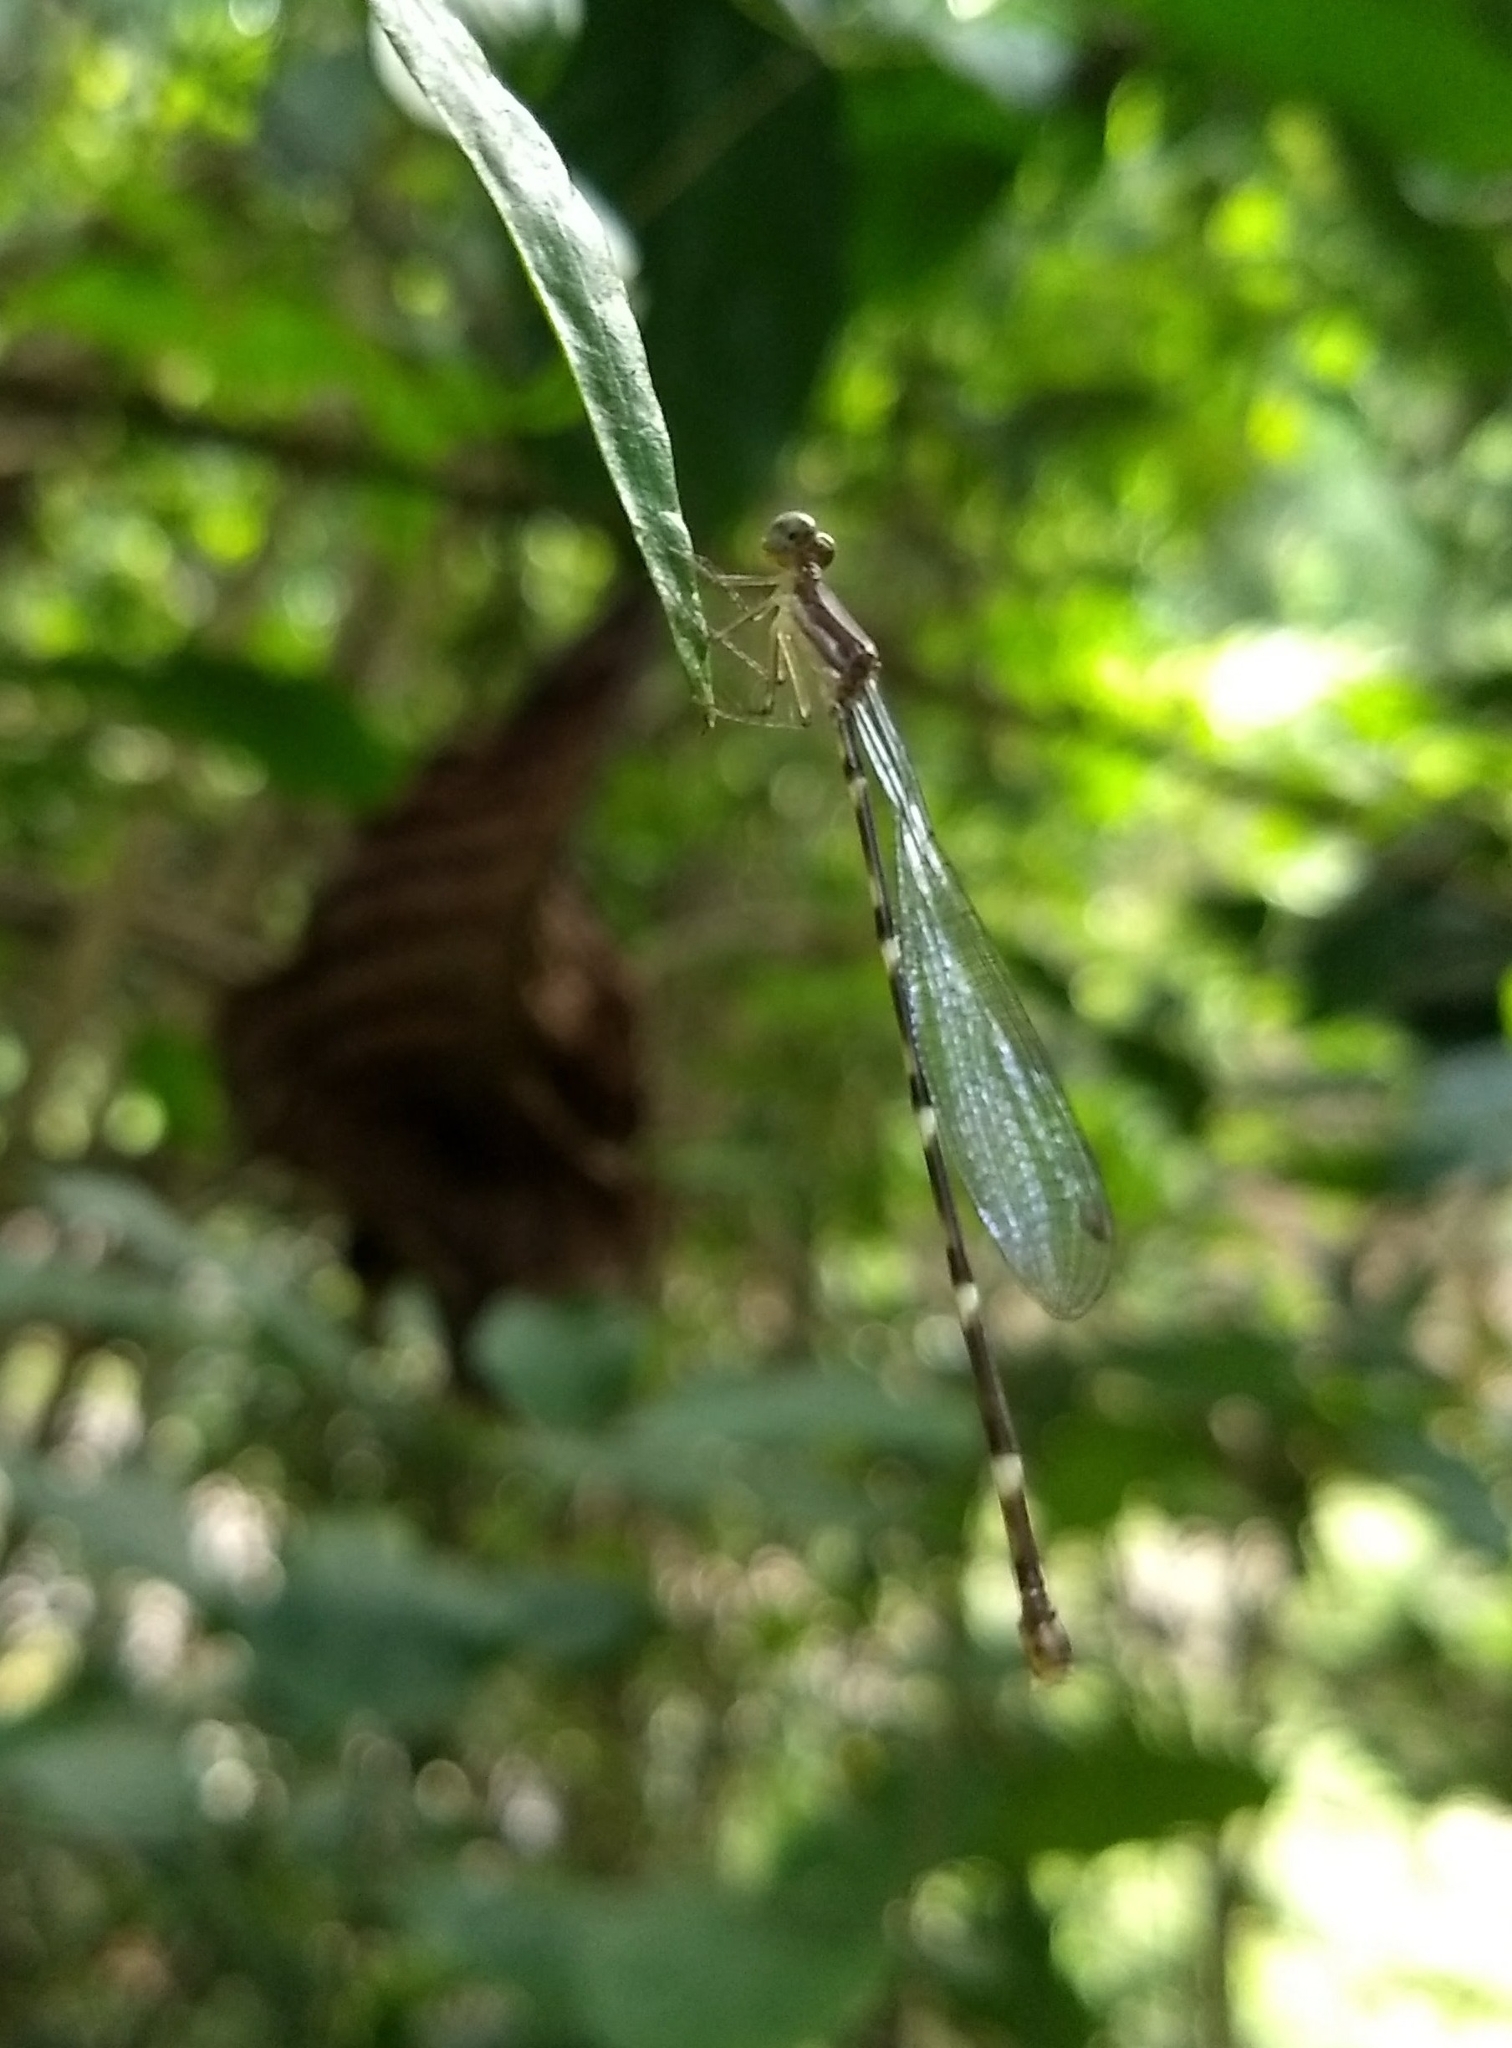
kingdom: Animalia
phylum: Arthropoda
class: Insecta
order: Odonata
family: Platystictidae
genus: Protosticta
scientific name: Protosticta sanguinostigma
